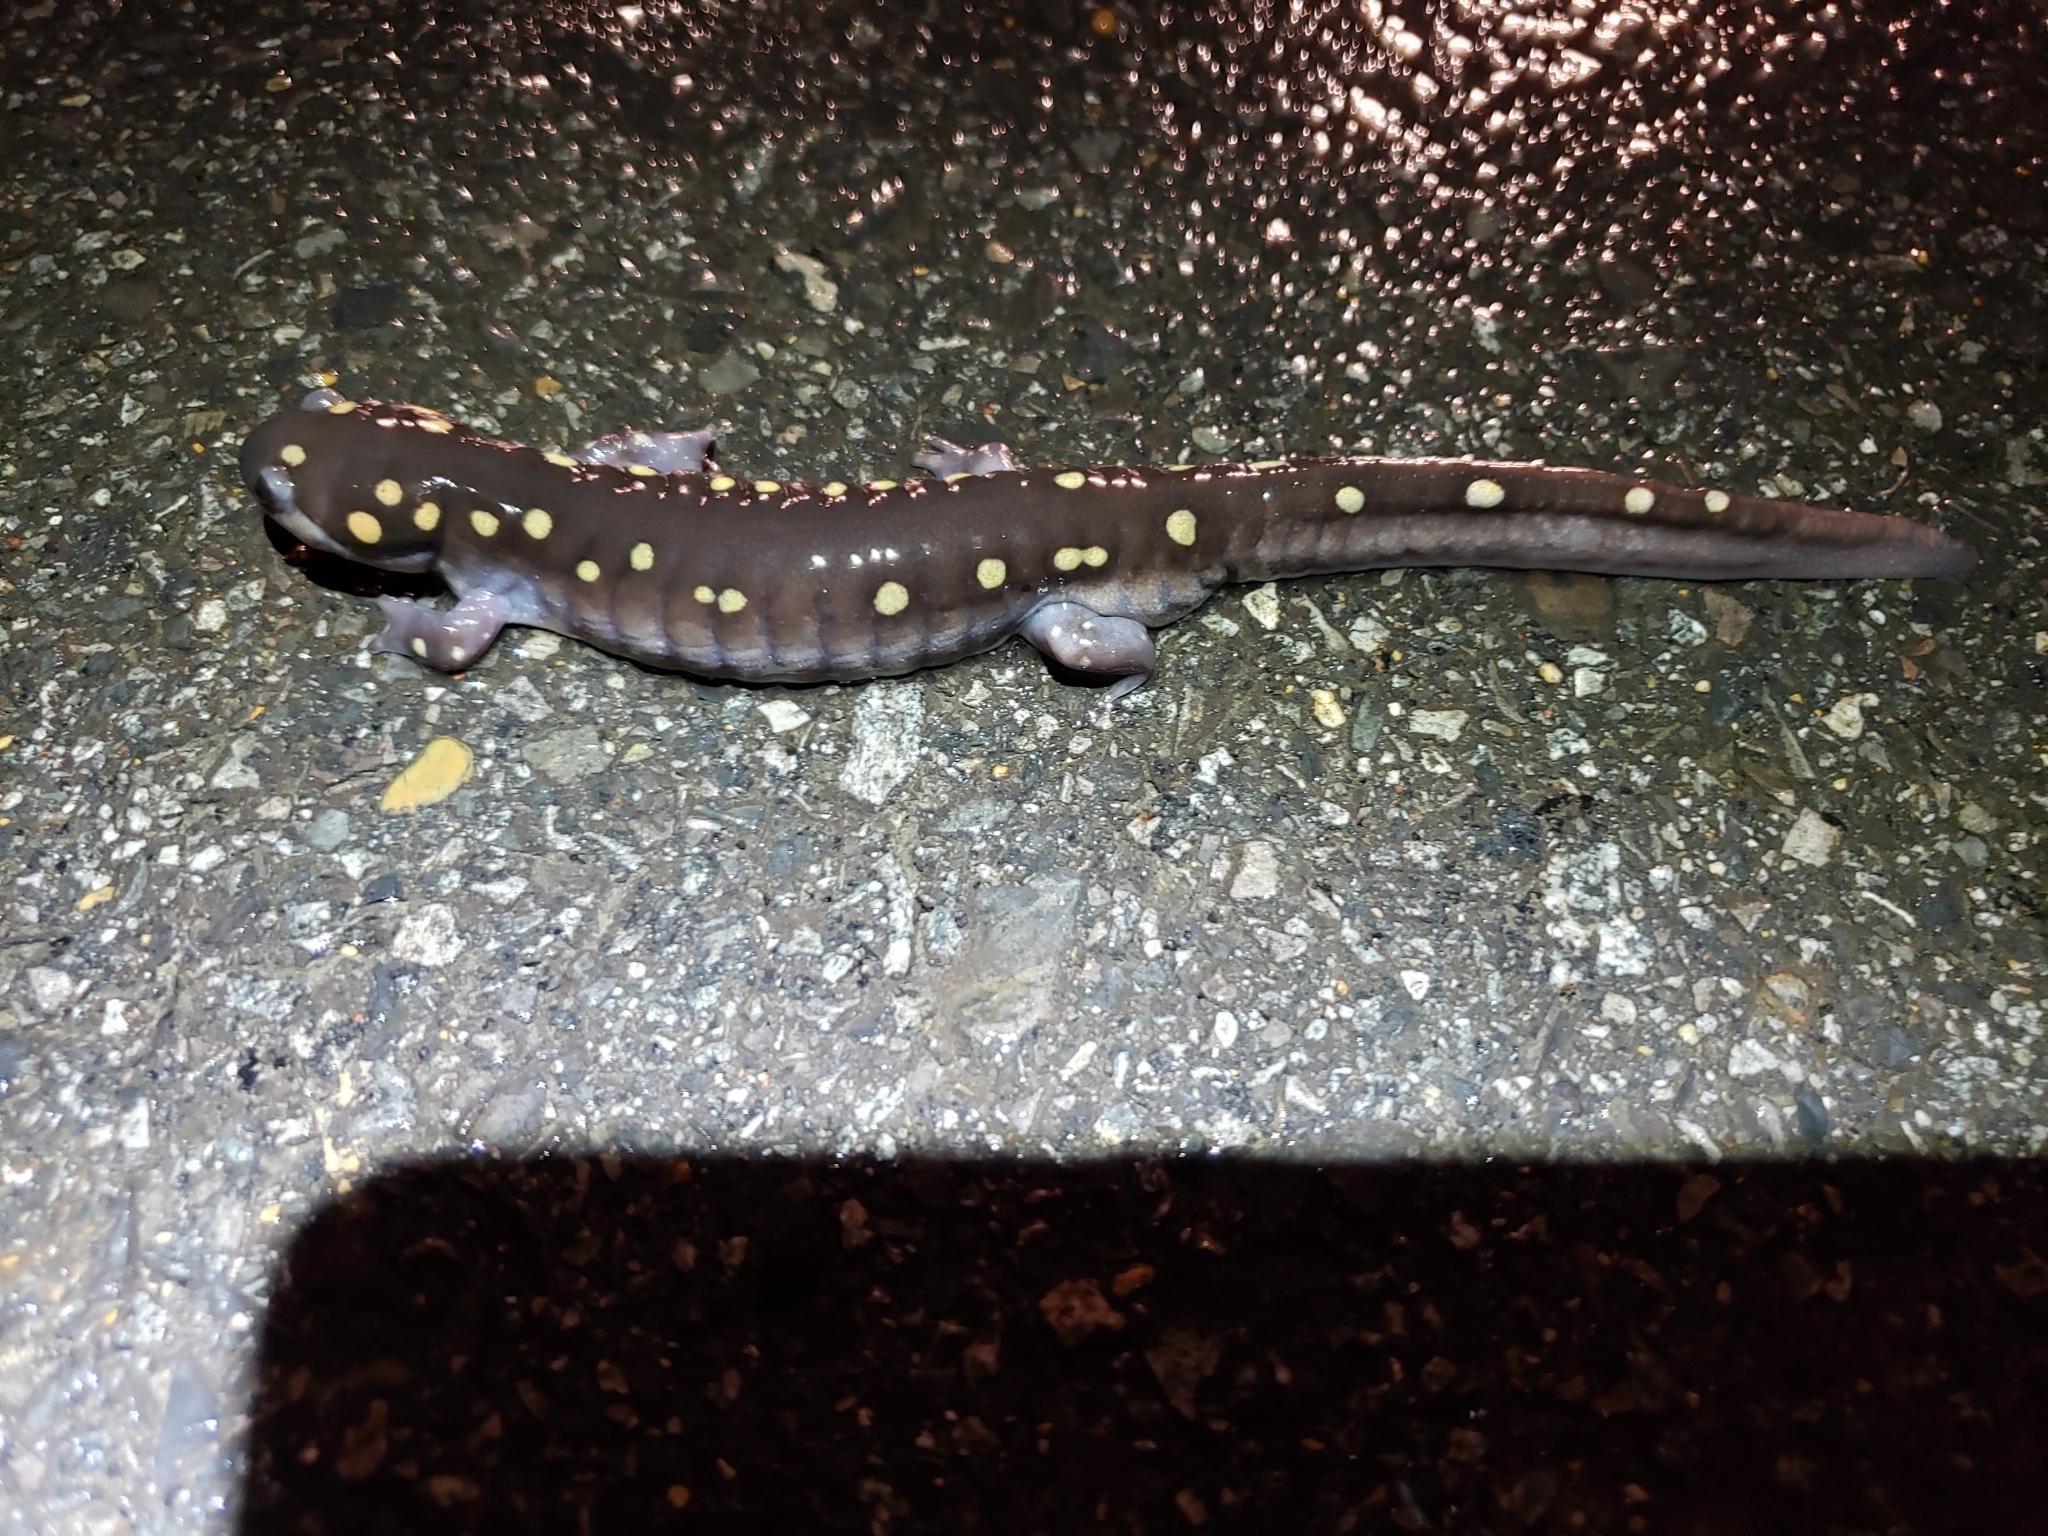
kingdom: Animalia
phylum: Chordata
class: Amphibia
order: Caudata
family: Ambystomatidae
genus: Ambystoma
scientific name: Ambystoma maculatum
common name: Spotted salamander
